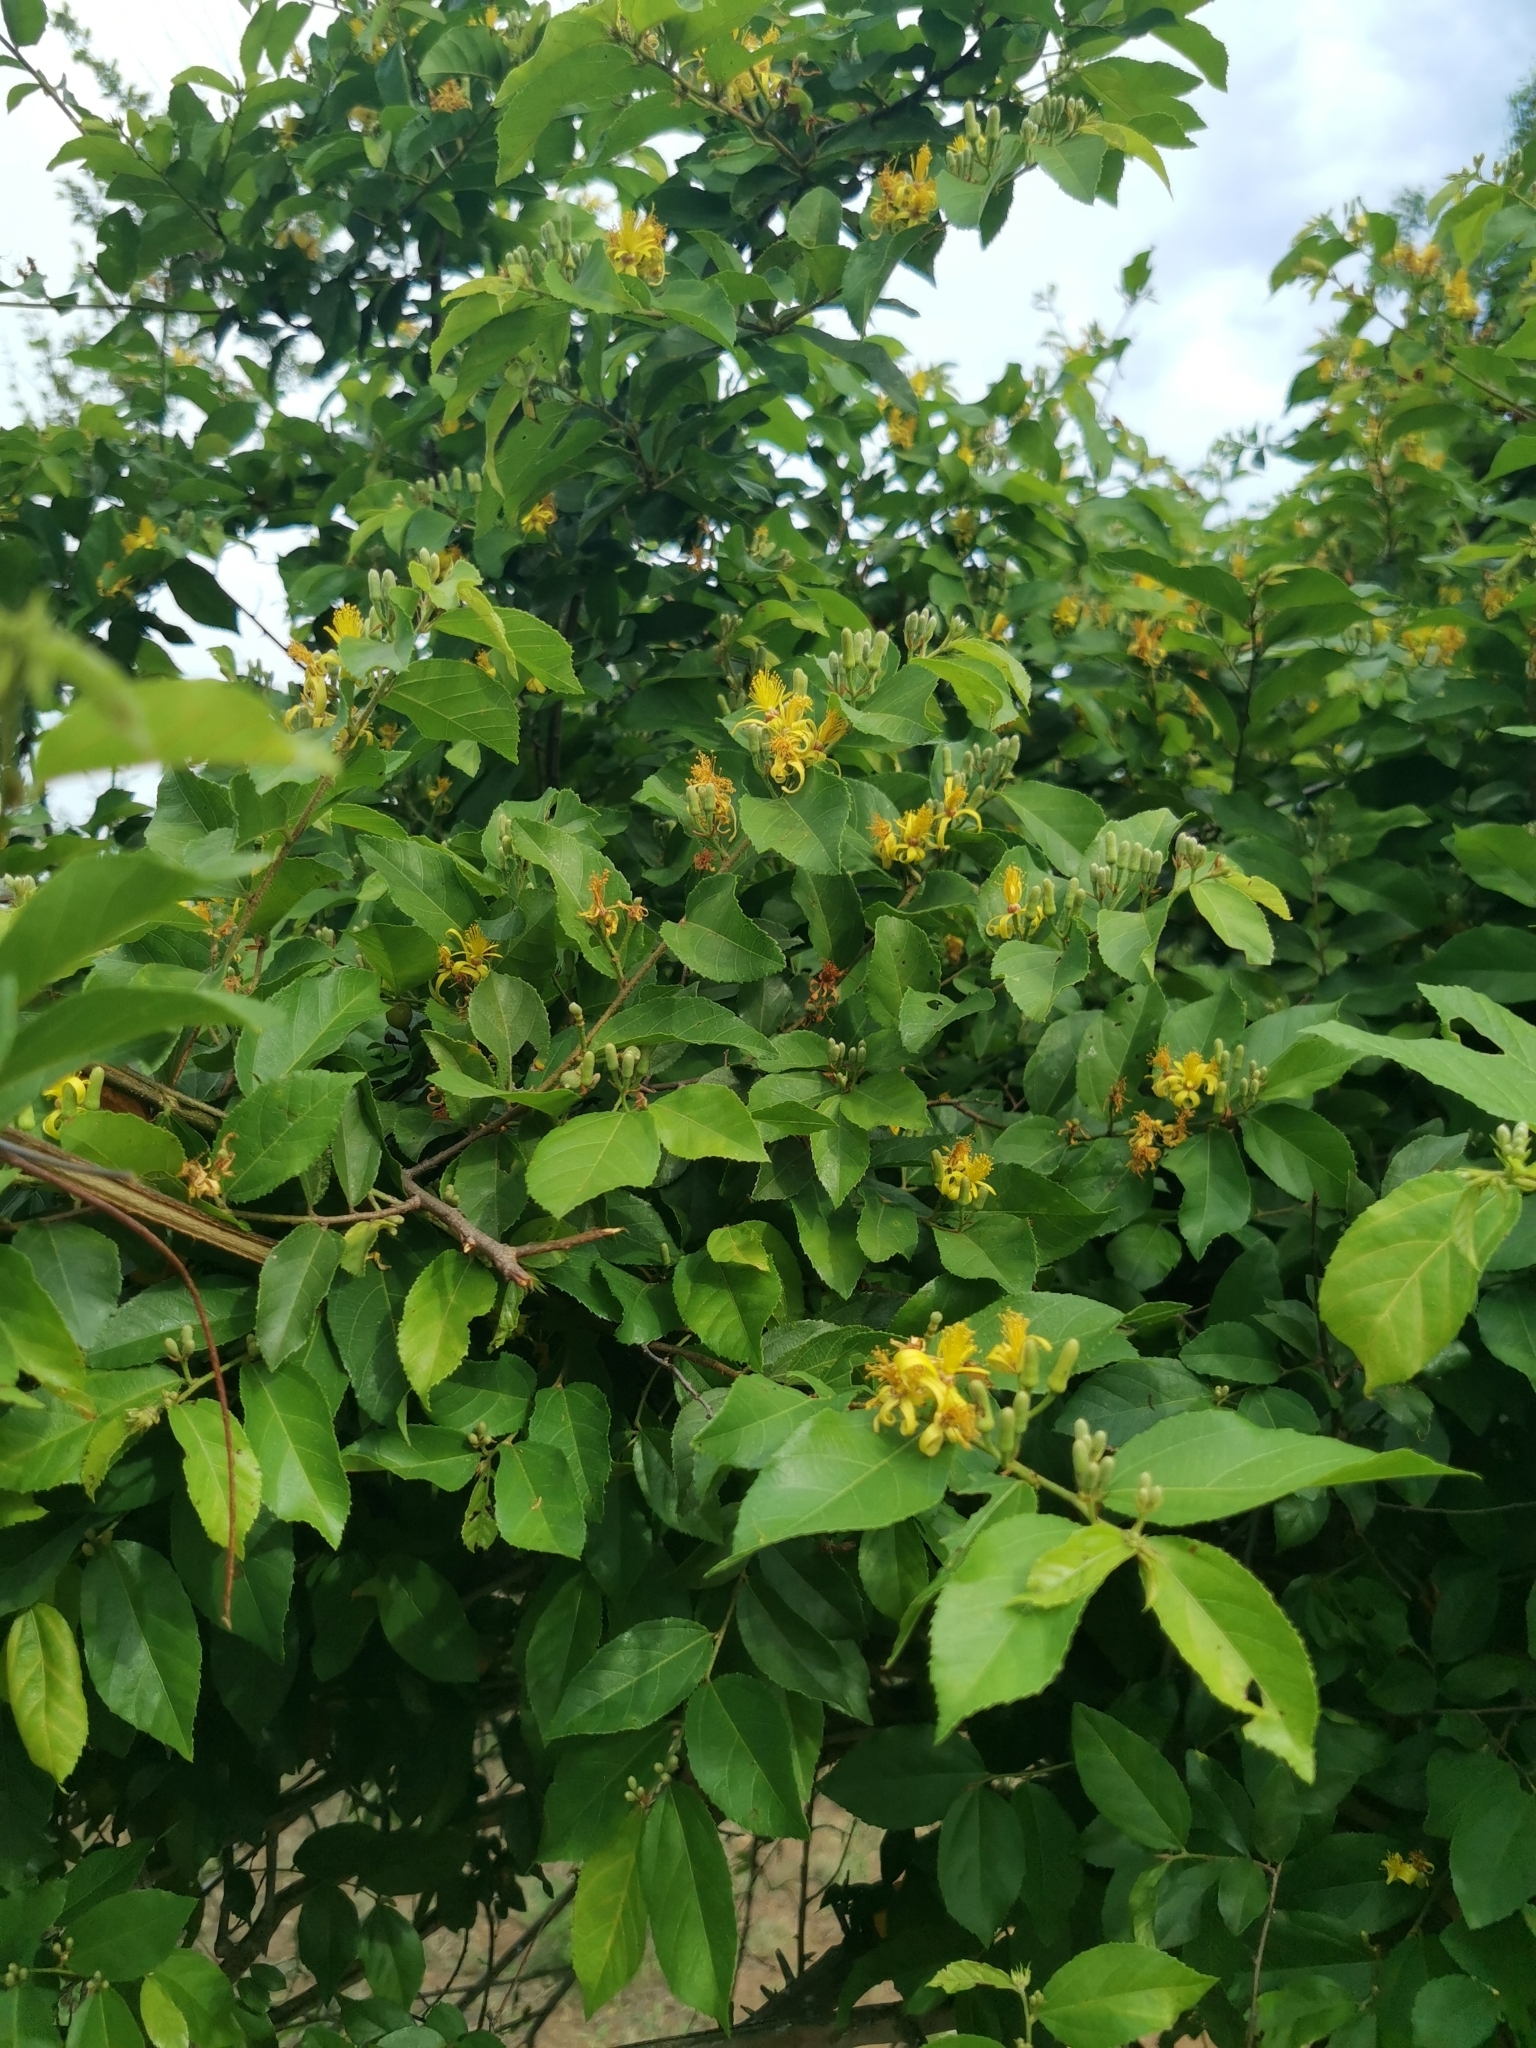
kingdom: Plantae
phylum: Tracheophyta
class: Magnoliopsida
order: Malvales
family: Malvaceae
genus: Grewia
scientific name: Grewia flavescens
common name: Sandpaper raisin
